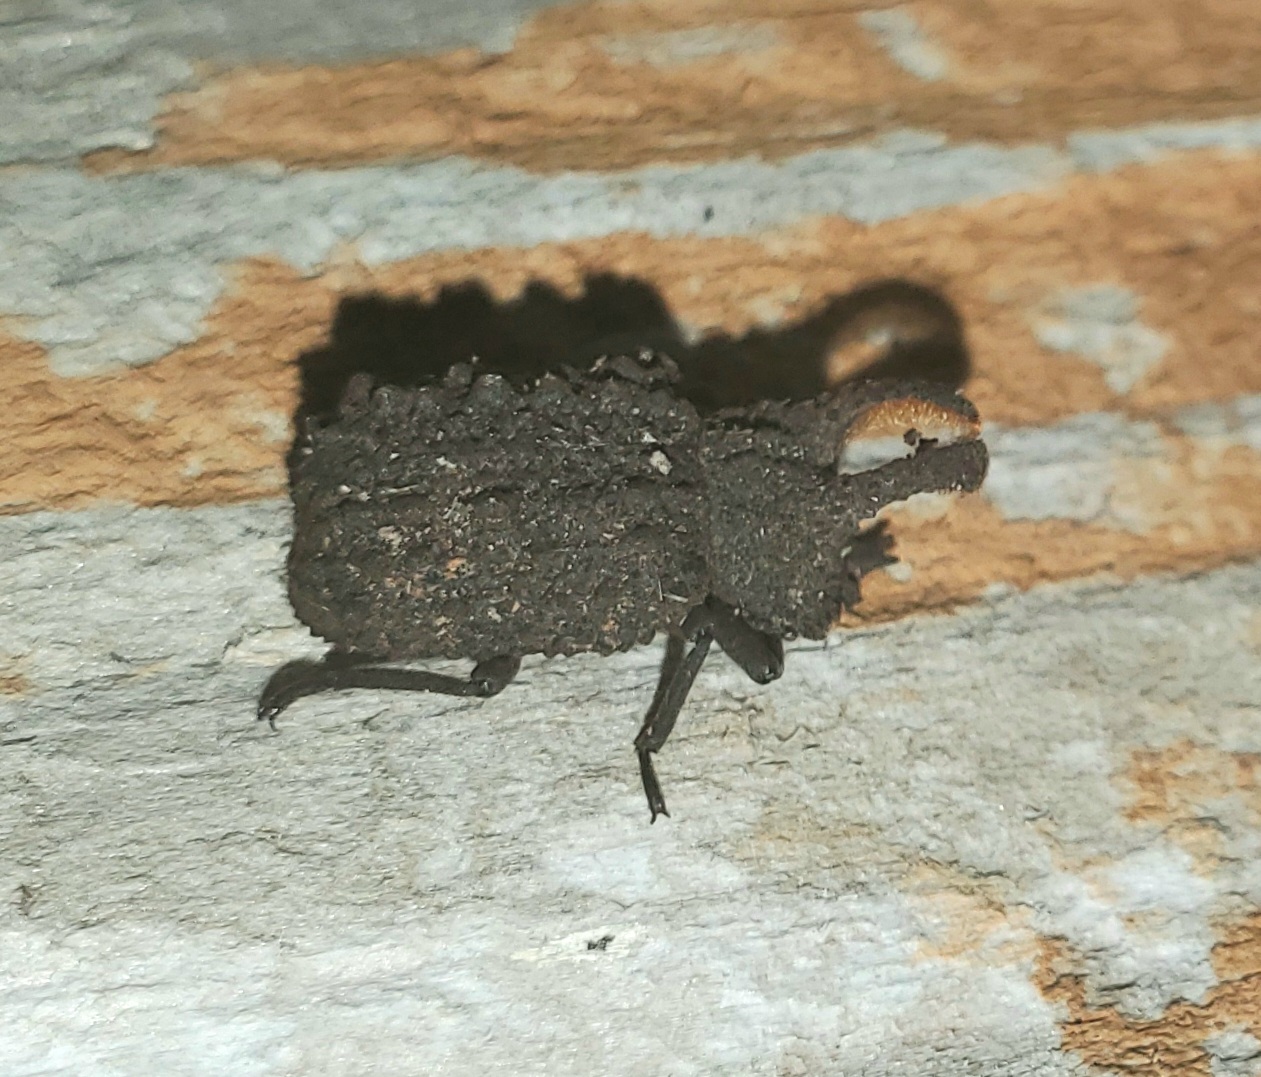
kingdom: Animalia
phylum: Arthropoda
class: Insecta
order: Coleoptera
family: Tenebrionidae
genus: Gnatocerus
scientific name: Gnatocerus cornutus
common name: Broad-horned flour beetle
